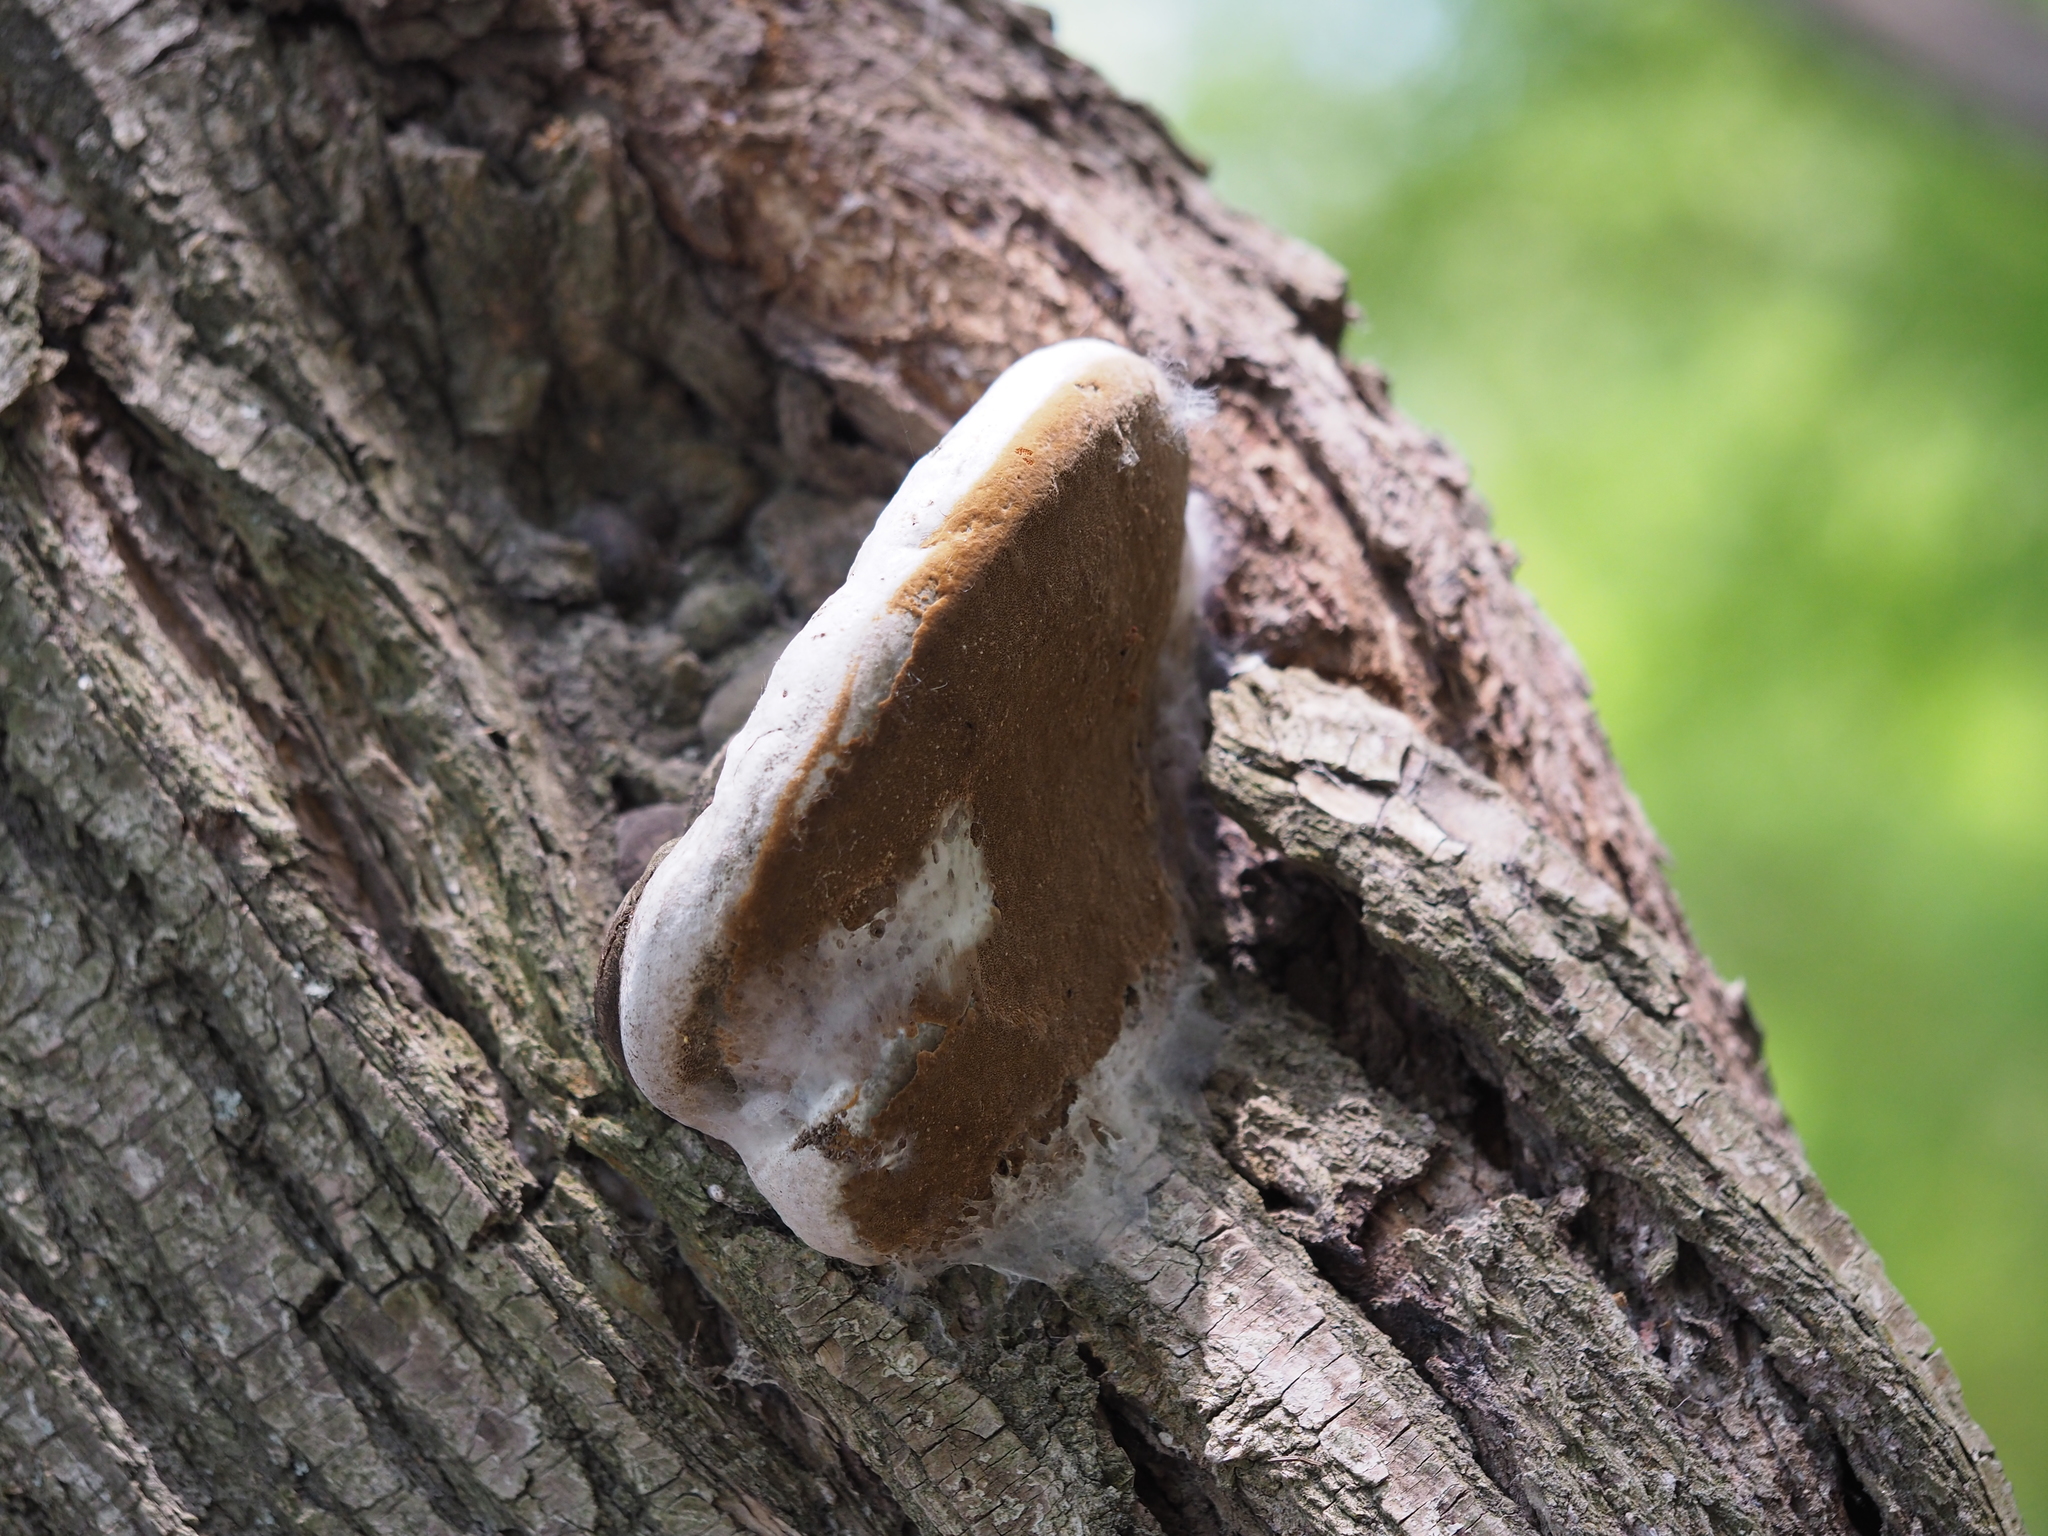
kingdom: Fungi
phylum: Basidiomycota
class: Agaricomycetes
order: Hymenochaetales
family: Hymenochaetaceae
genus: Phellinus
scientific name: Phellinus igniarius
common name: Willow bracket
